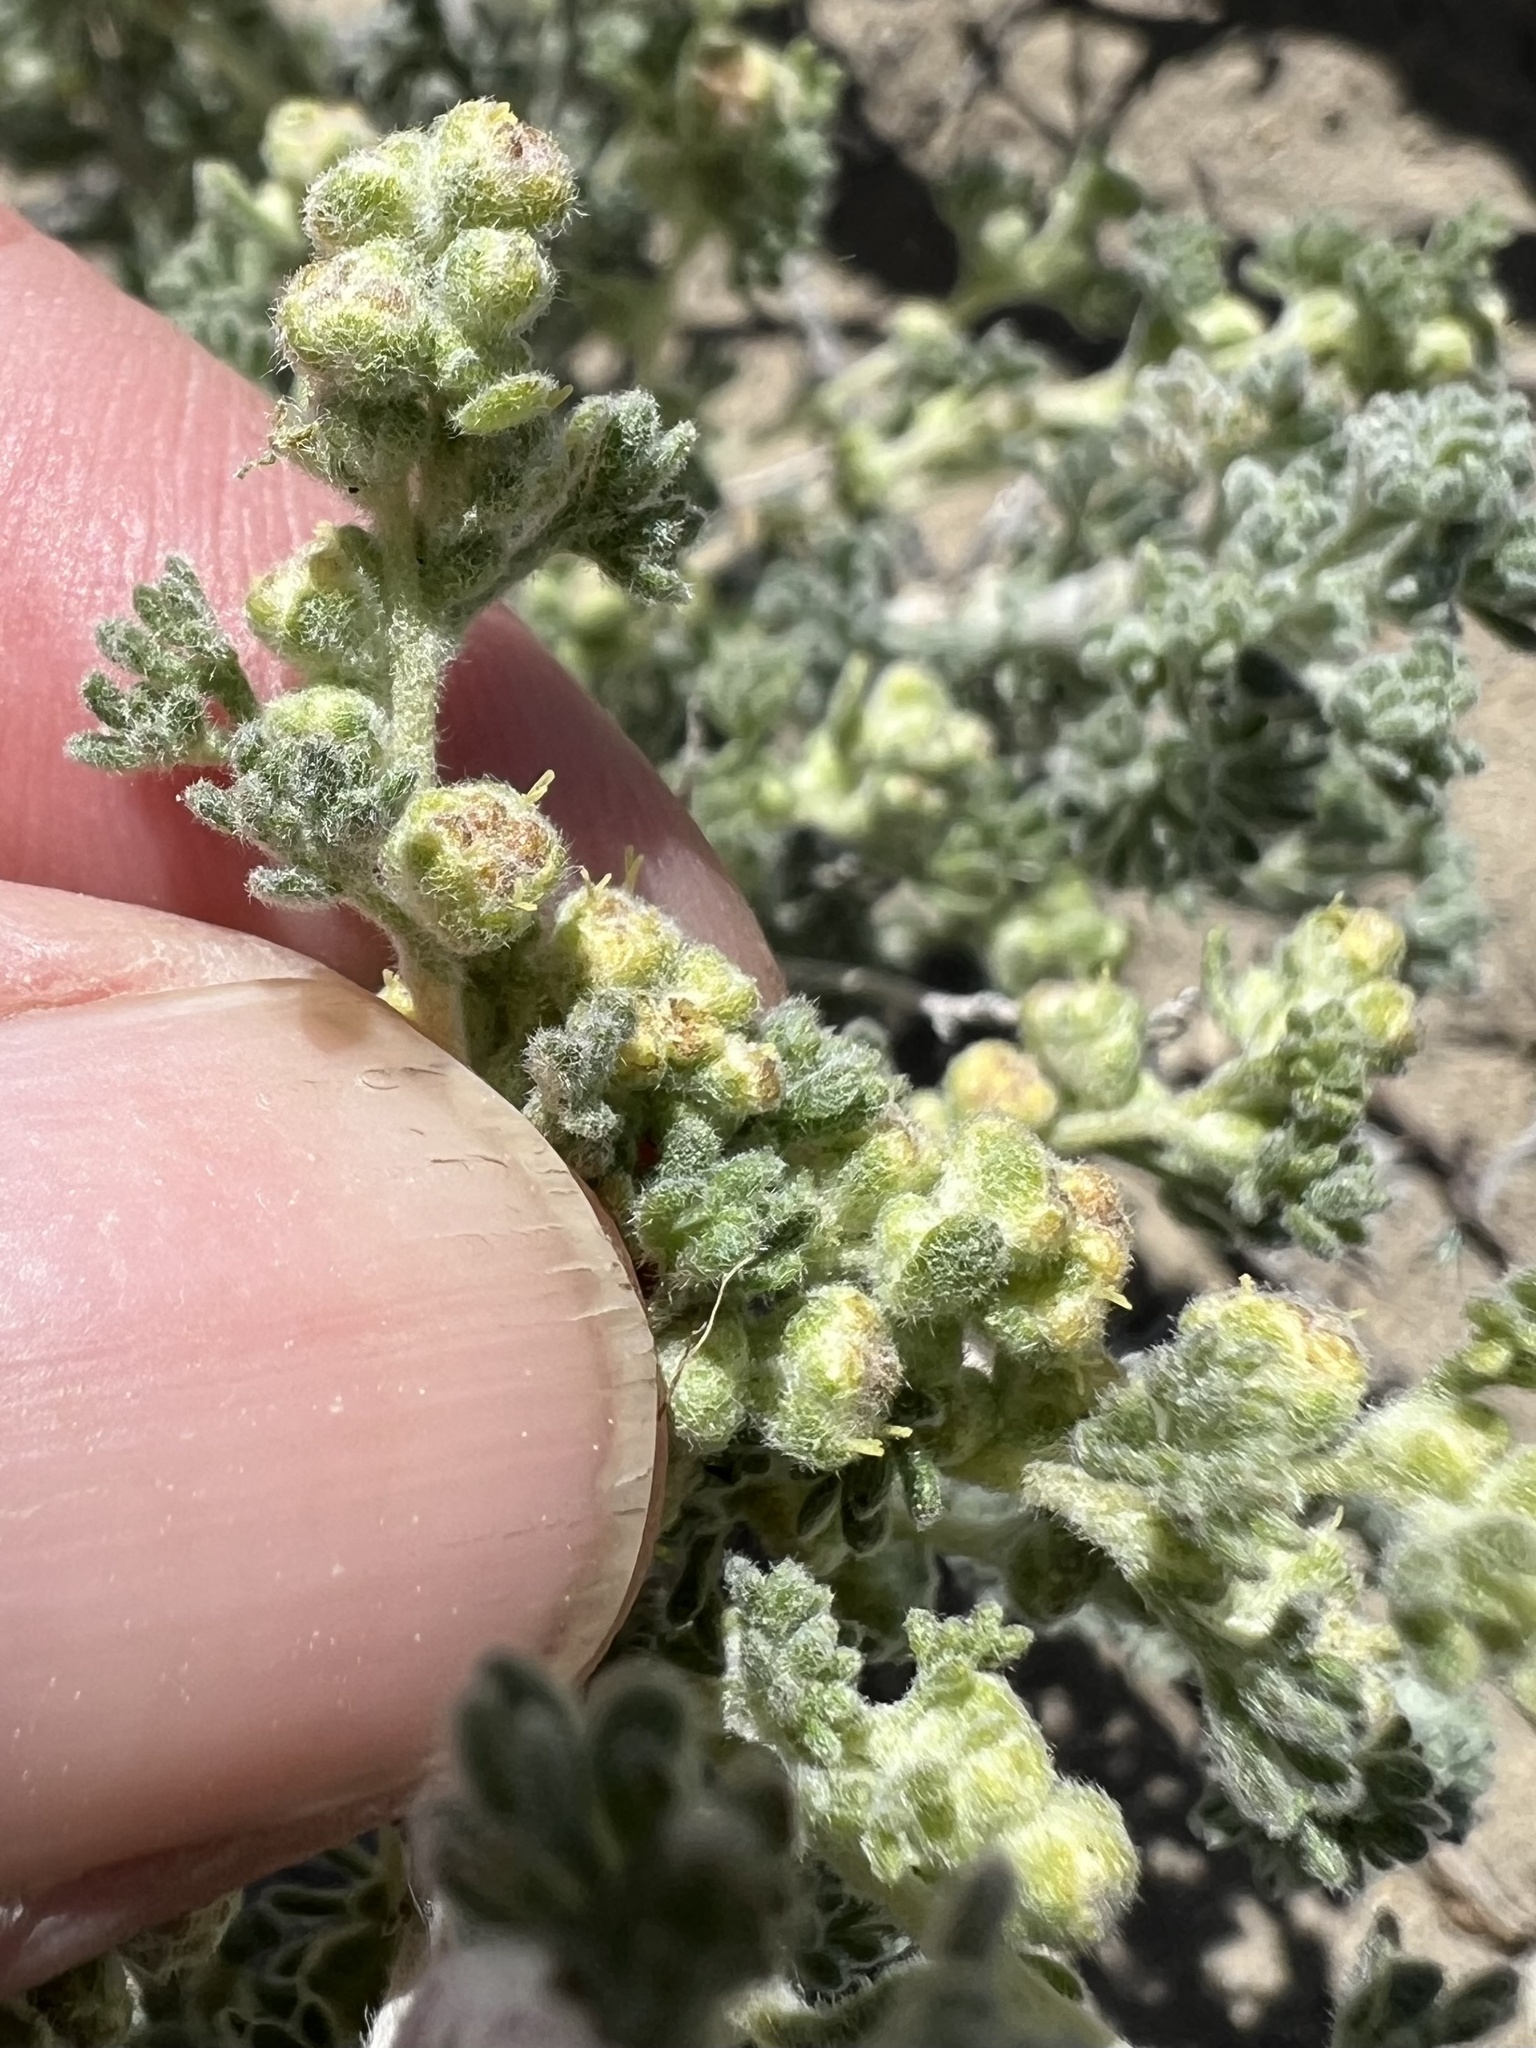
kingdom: Plantae
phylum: Tracheophyta
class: Magnoliopsida
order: Asterales
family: Asteraceae
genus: Artemisia
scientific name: Artemisia spinescens
